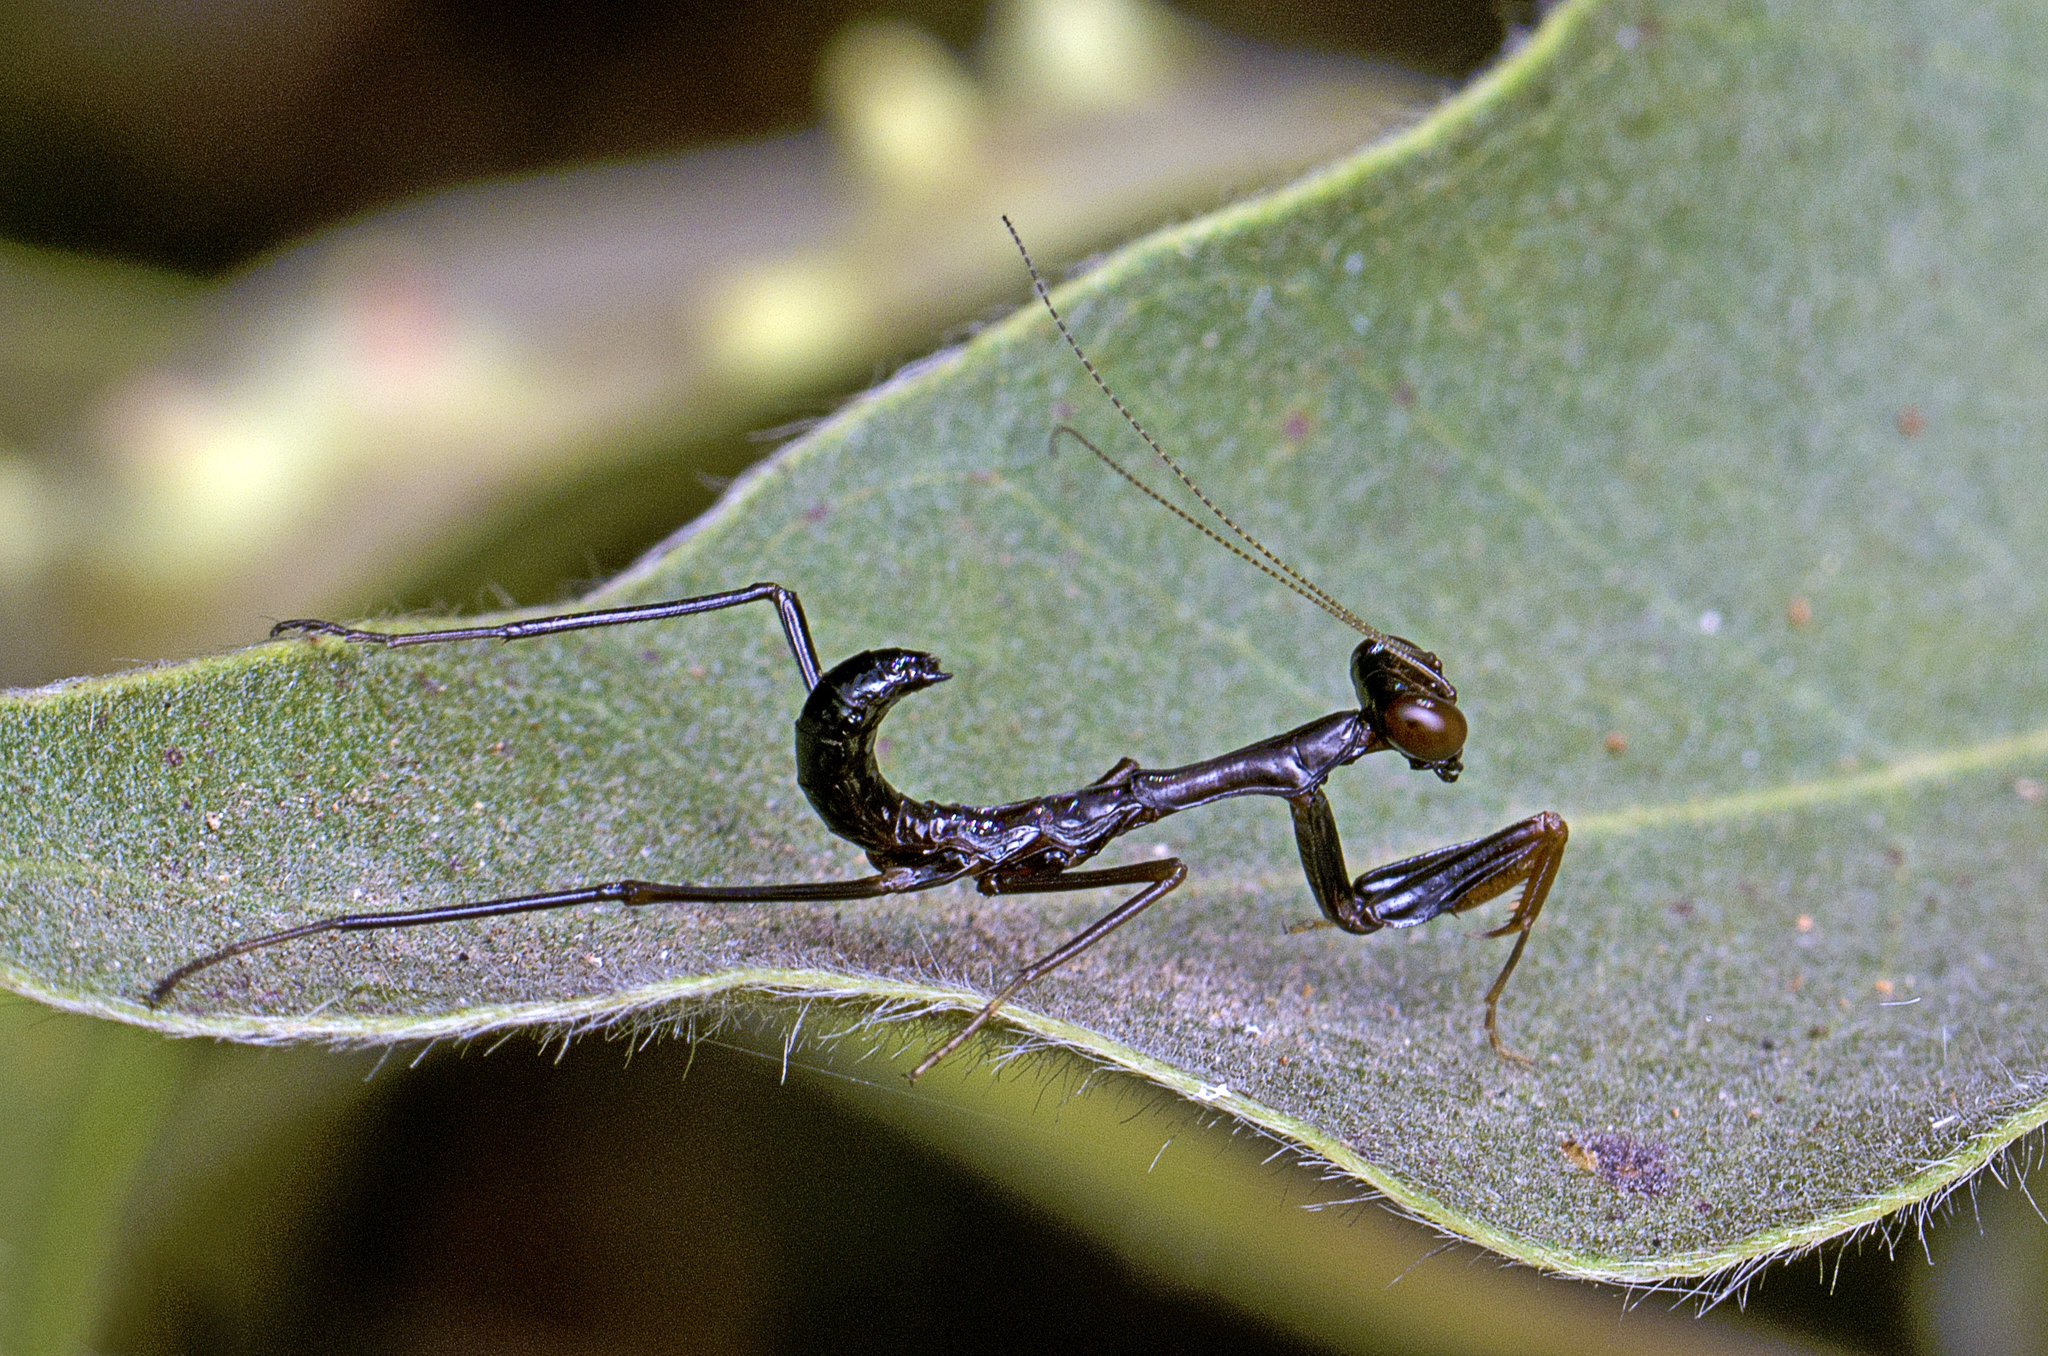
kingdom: Animalia
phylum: Arthropoda
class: Insecta
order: Mantodea
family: Mantidae
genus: Sphodropoda
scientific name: Sphodropoda tristis
